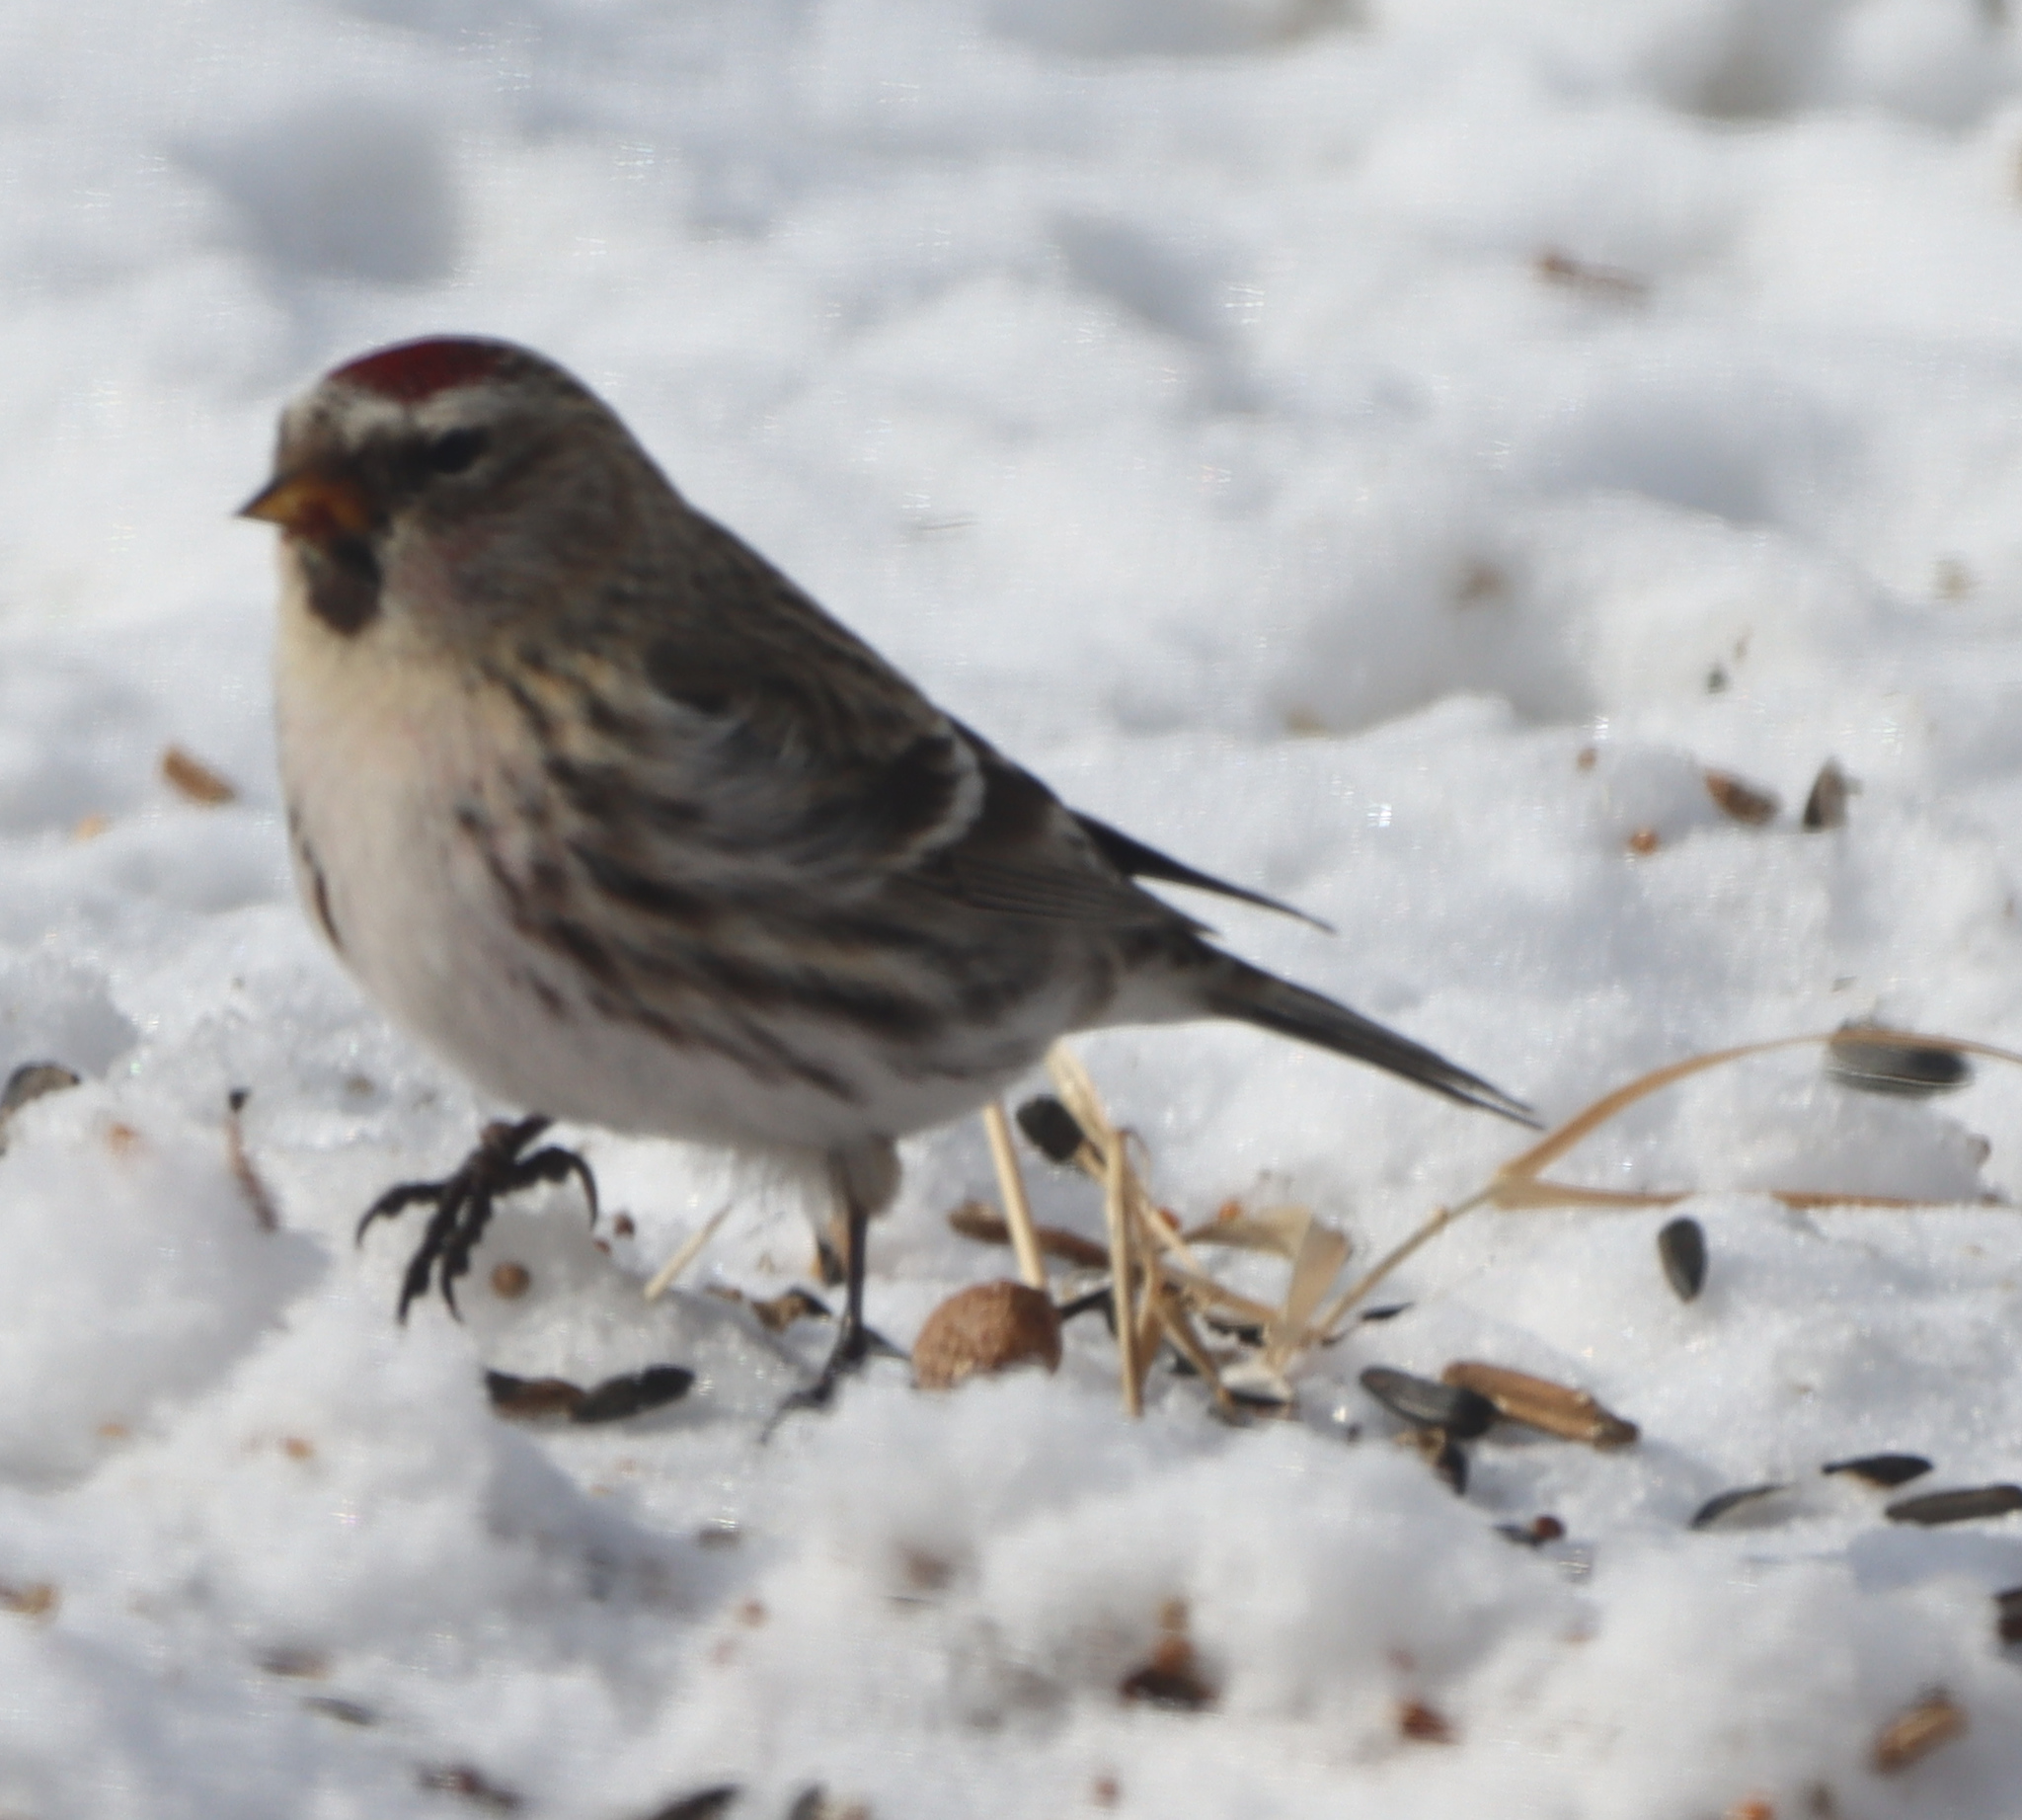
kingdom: Animalia
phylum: Chordata
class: Aves
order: Passeriformes
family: Fringillidae
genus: Acanthis
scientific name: Acanthis flammea
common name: Common redpoll
